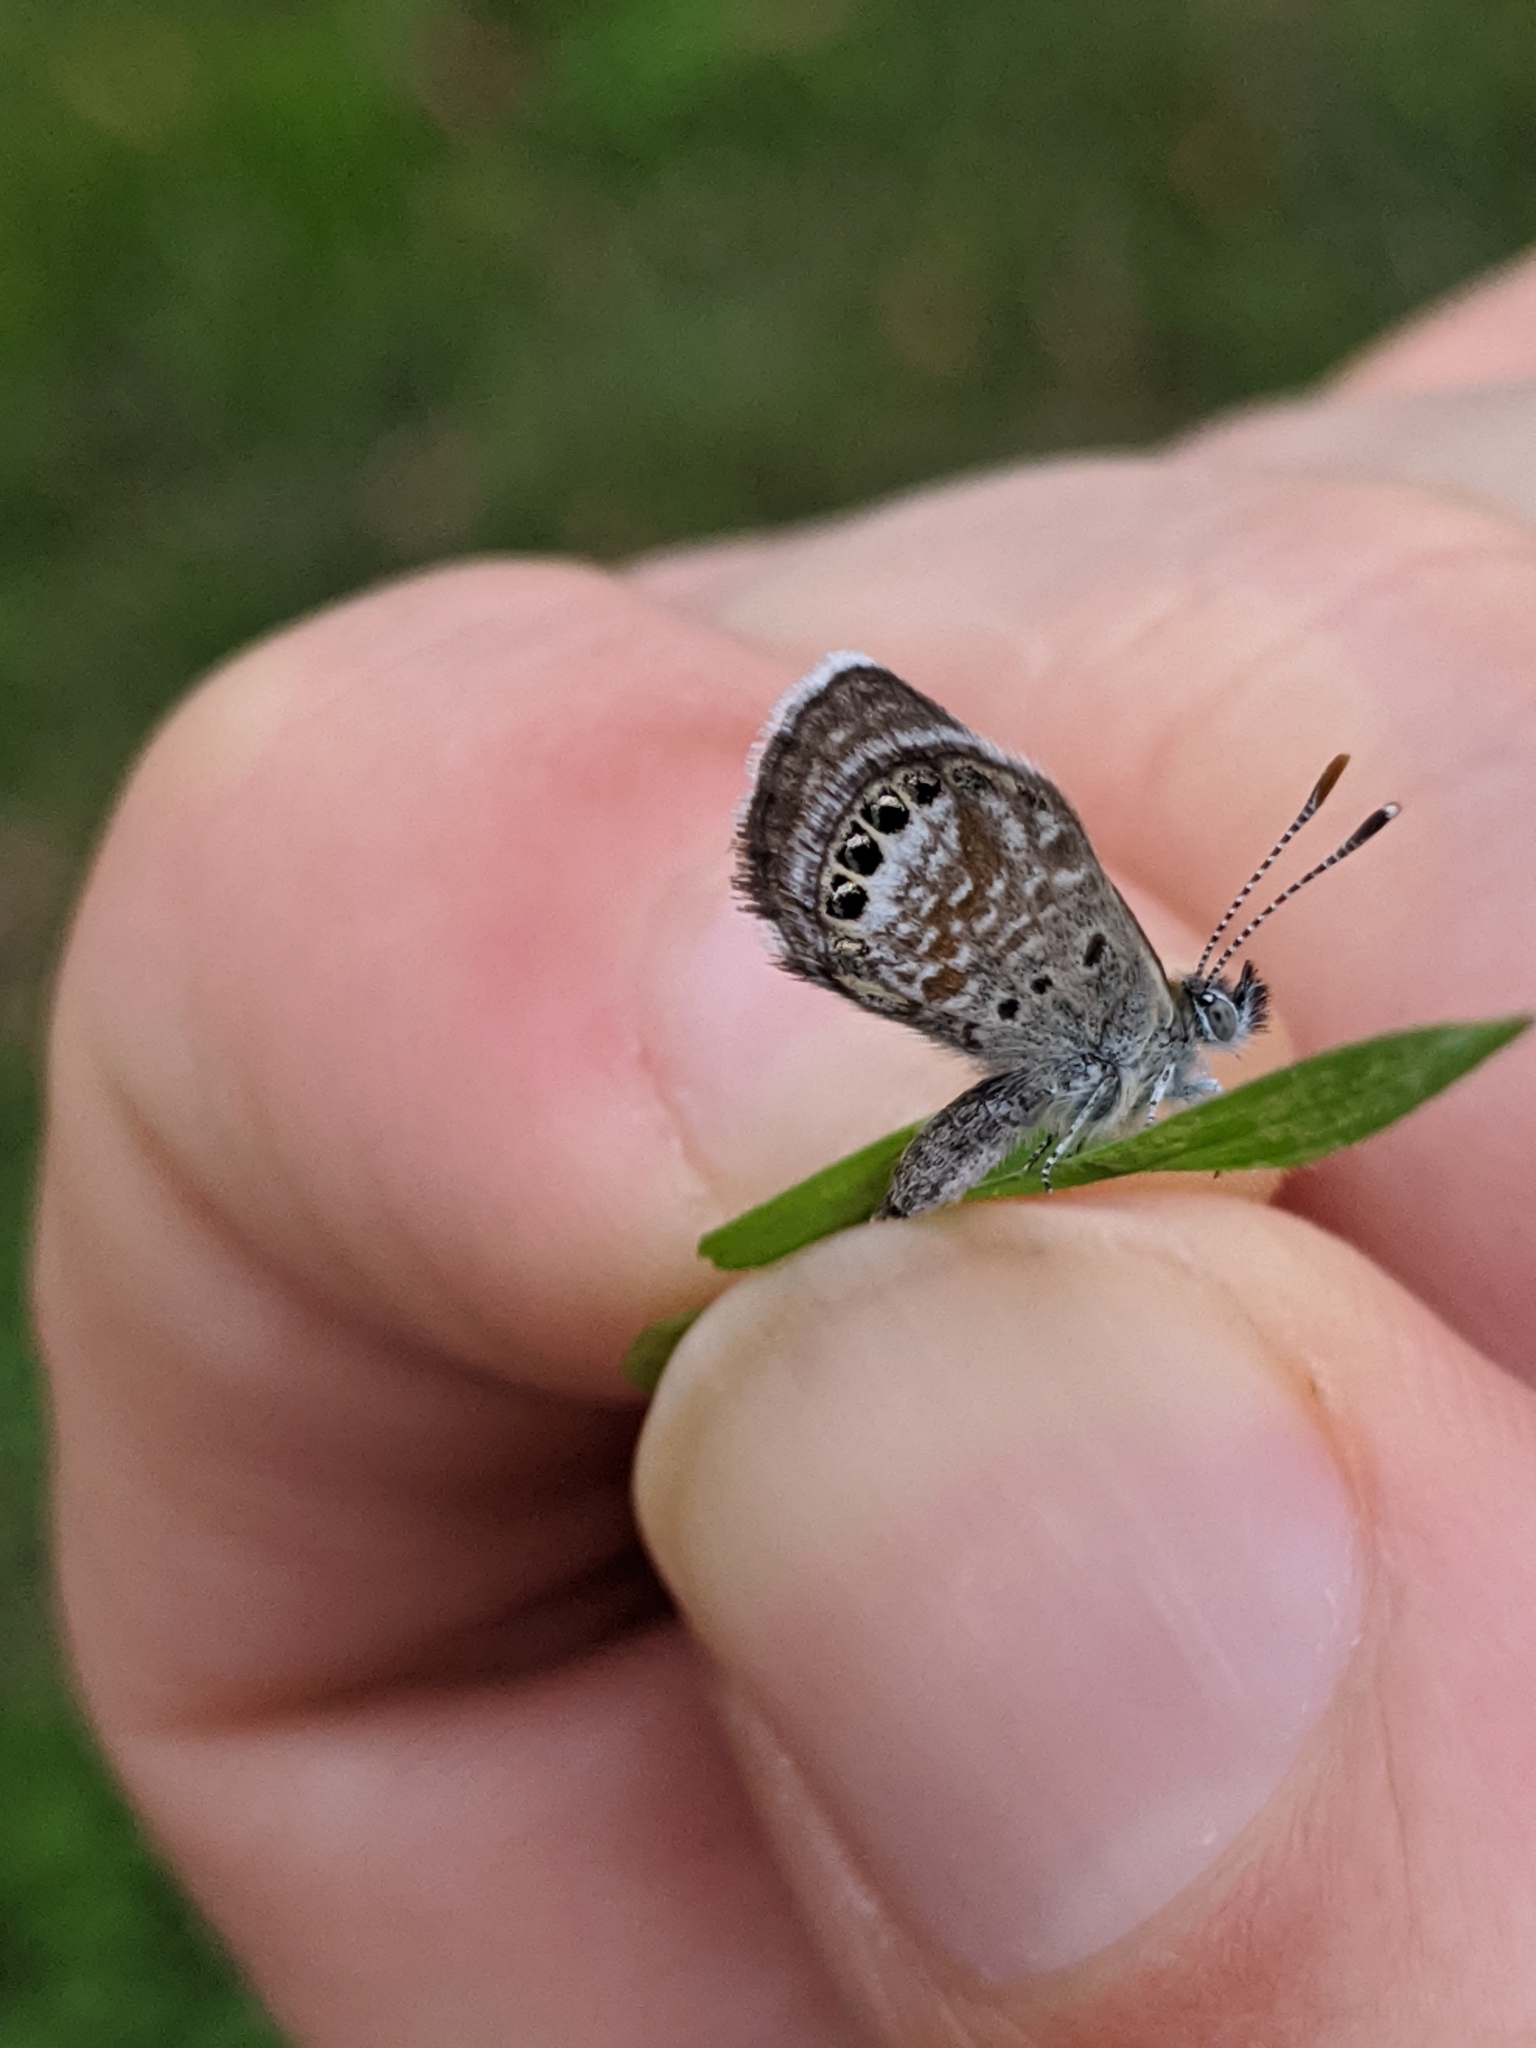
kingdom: Animalia
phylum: Arthropoda
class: Insecta
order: Lepidoptera
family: Lycaenidae
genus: Brephidium
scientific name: Brephidium exilis
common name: Pygmy blue
